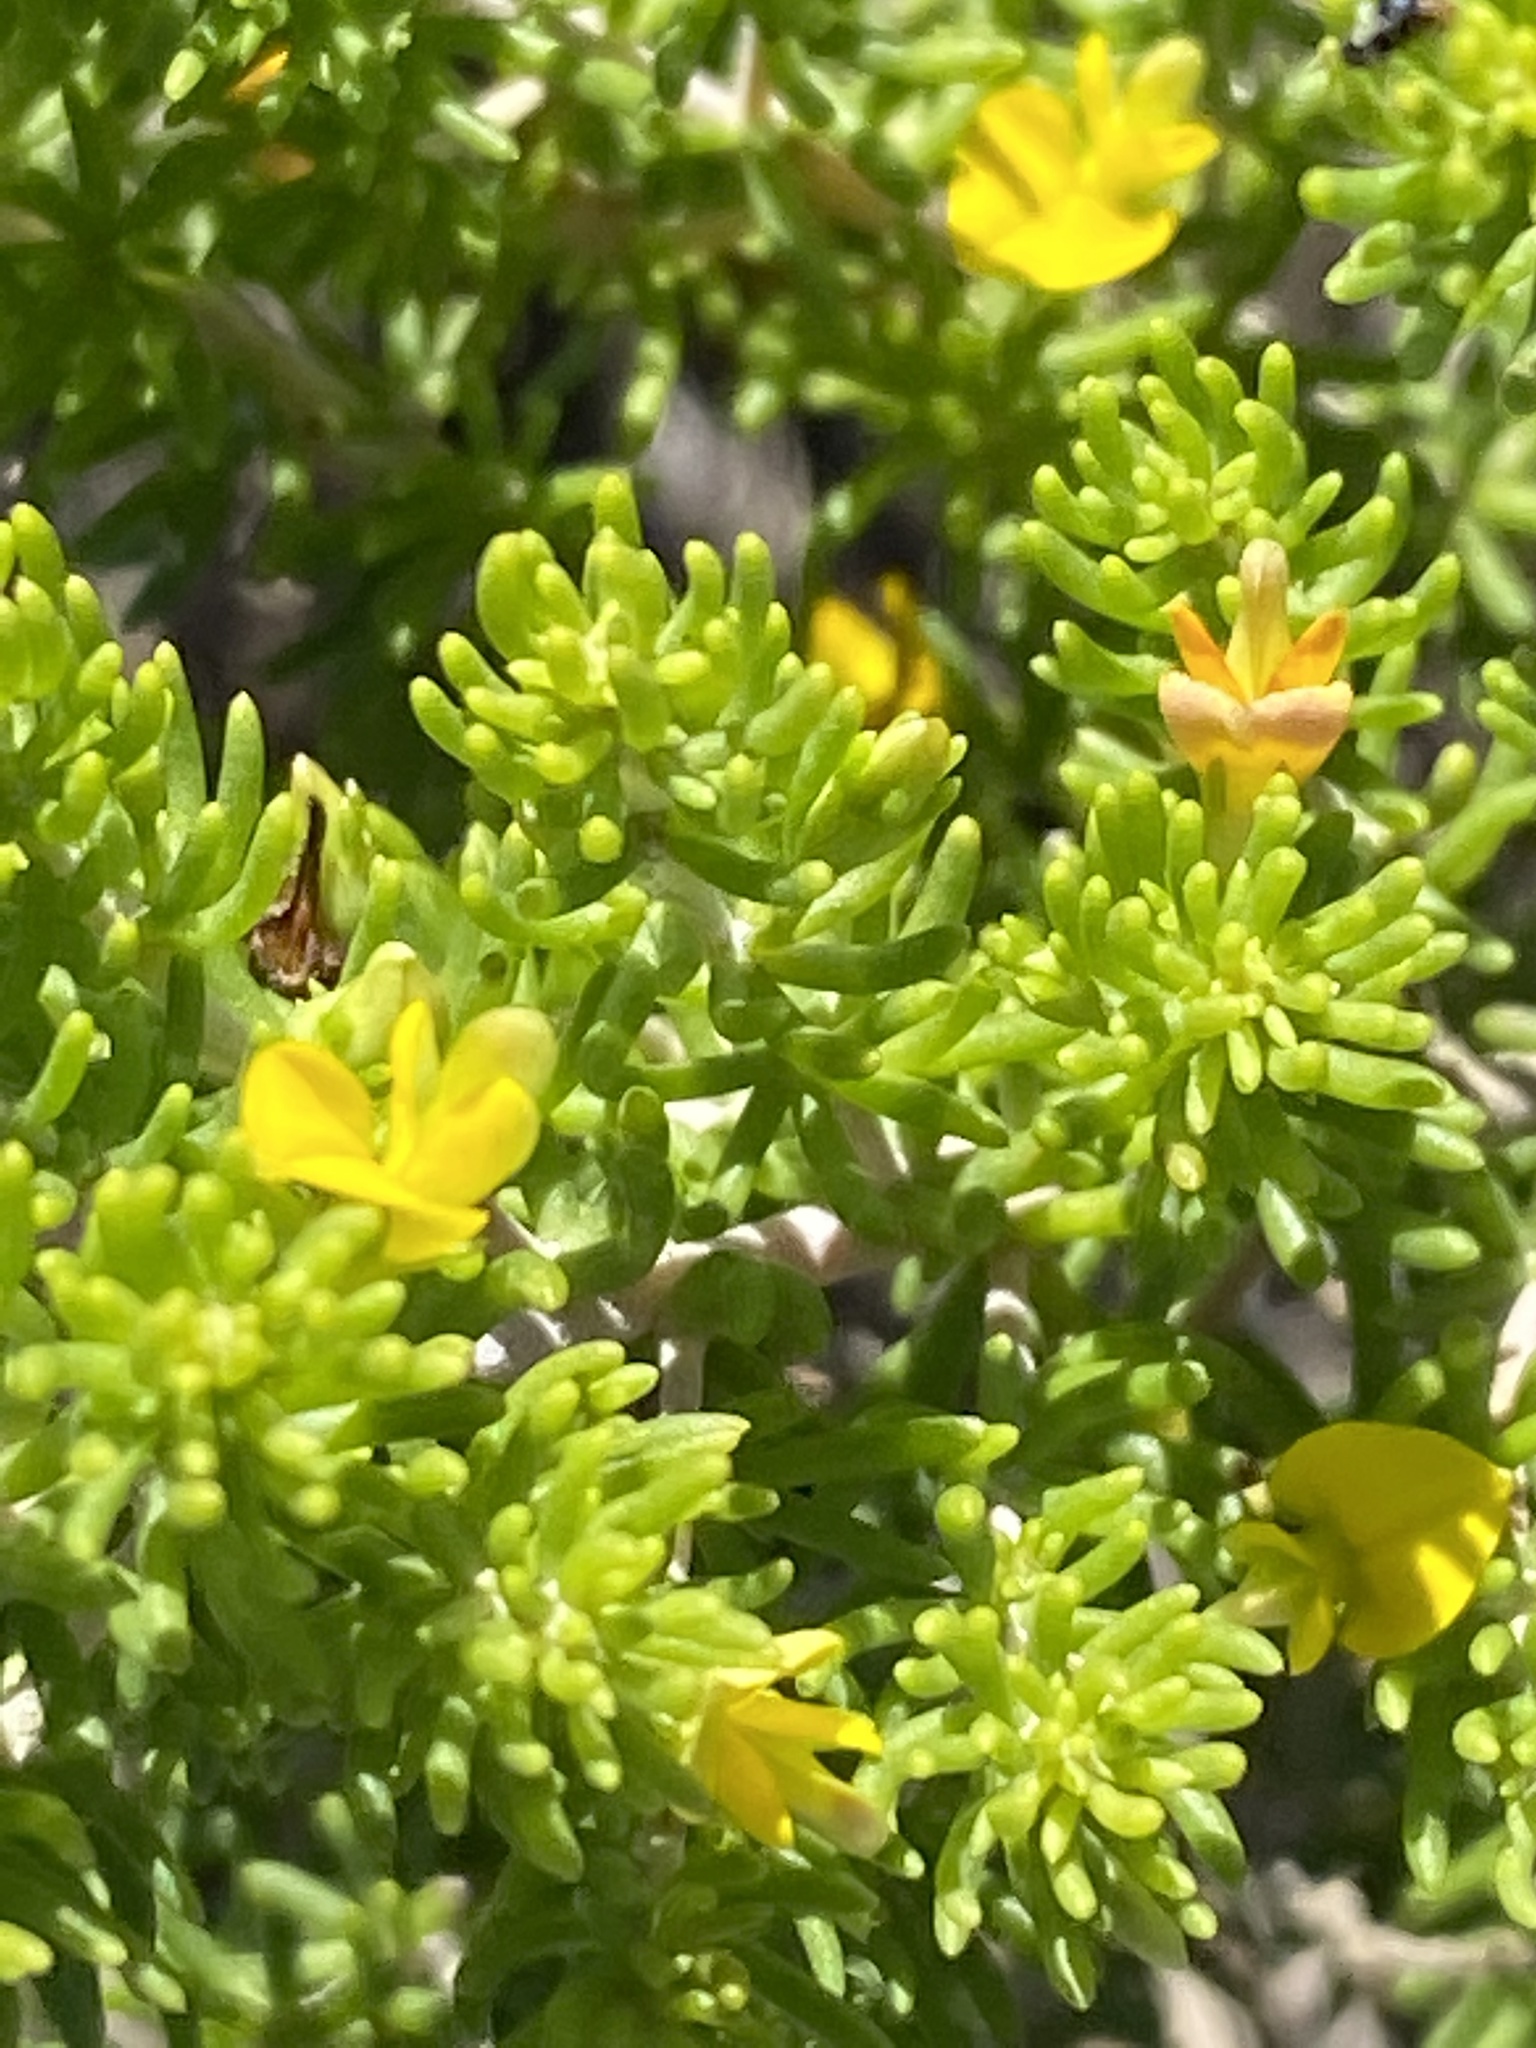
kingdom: Plantae
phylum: Tracheophyta
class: Magnoliopsida
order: Fabales
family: Fabaceae
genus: Aspalathus
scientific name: Aspalathus sanguinea
